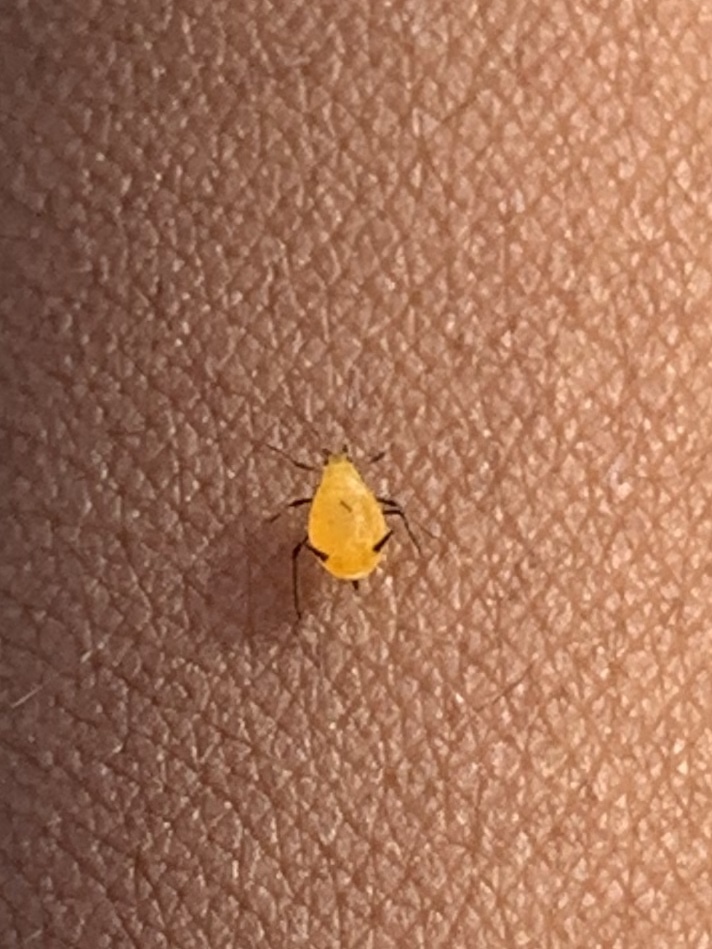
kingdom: Animalia
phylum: Arthropoda
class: Insecta
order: Hemiptera
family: Aphididae
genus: Aphis
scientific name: Aphis nerii
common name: Oleander aphid
